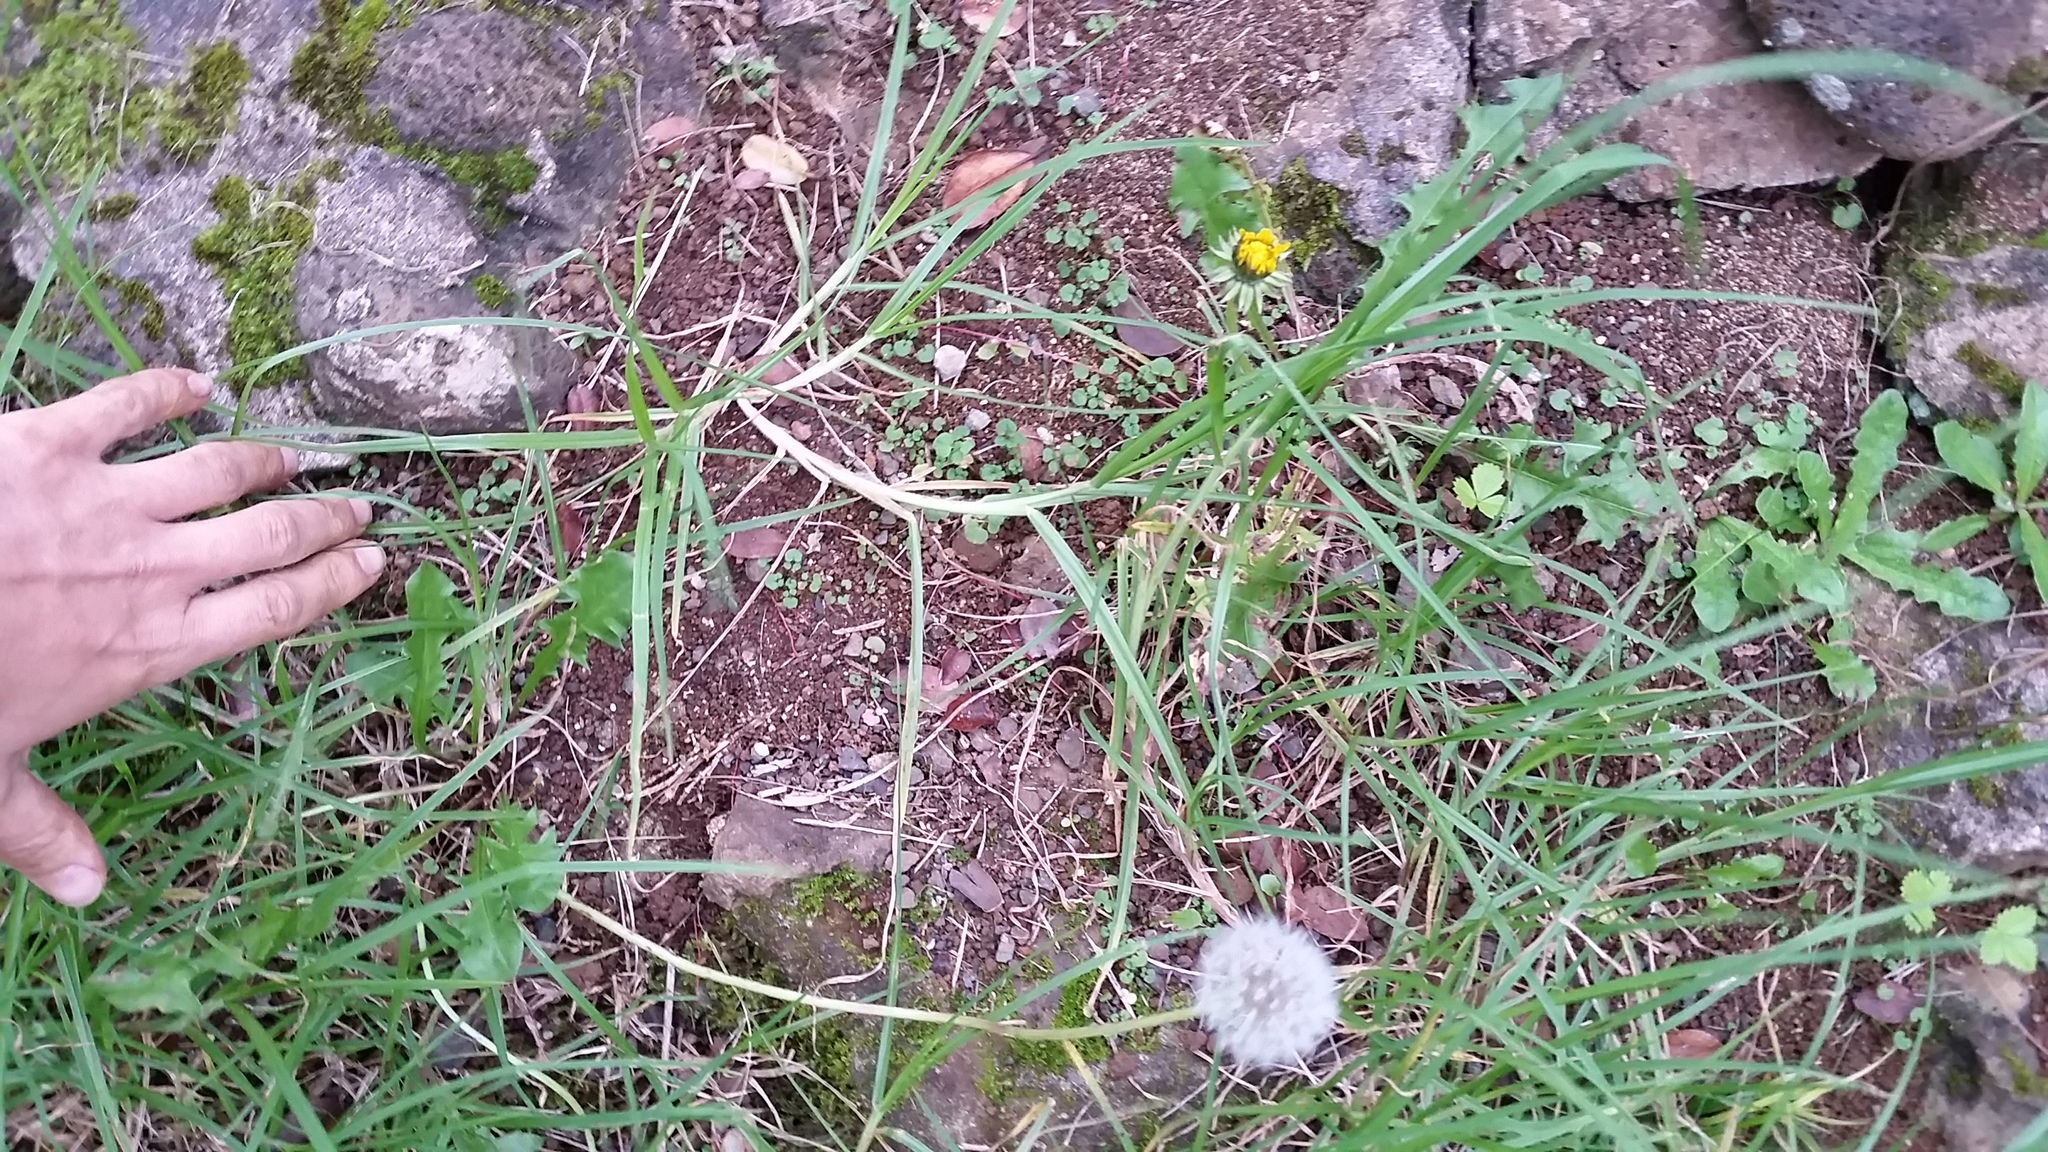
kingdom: Plantae
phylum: Tracheophyta
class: Magnoliopsida
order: Asterales
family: Asteraceae
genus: Taraxacum
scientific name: Taraxacum officinale
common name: Common dandelion
